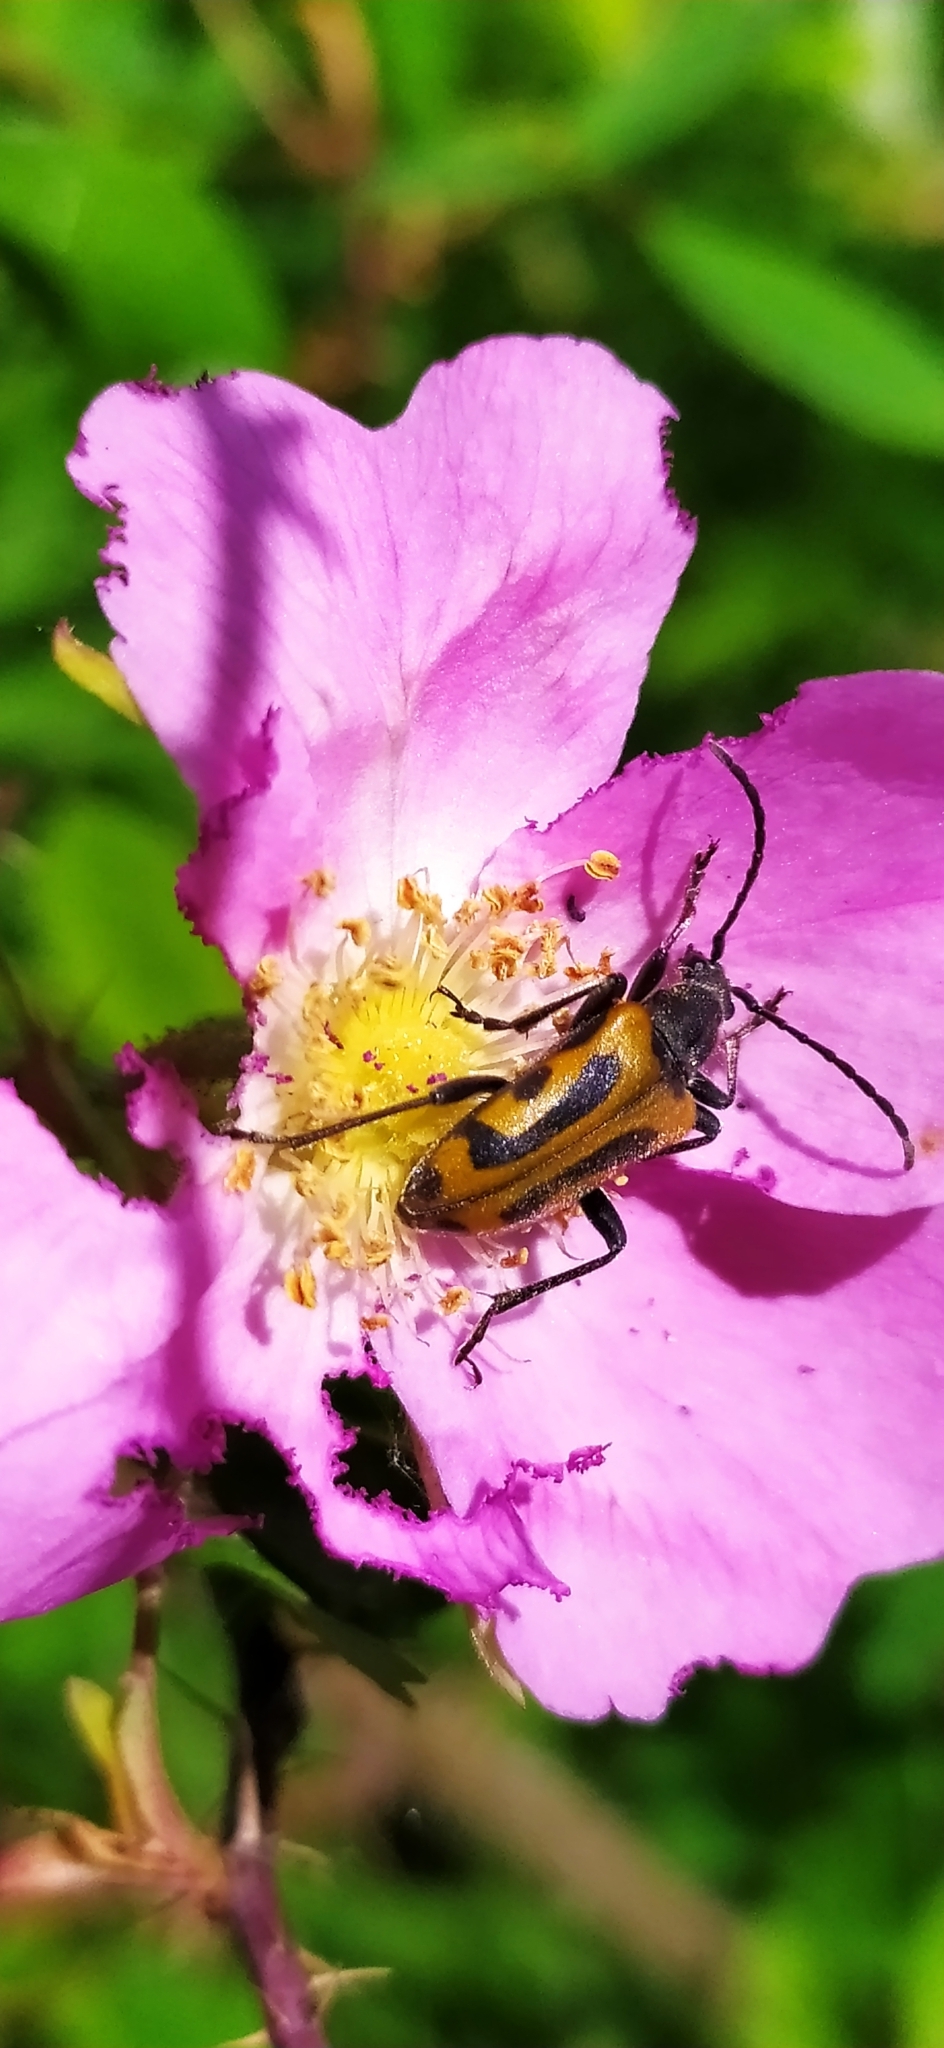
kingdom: Animalia
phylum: Arthropoda
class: Insecta
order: Coleoptera
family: Cerambycidae
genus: Brachyta
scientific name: Brachyta interrogationis
